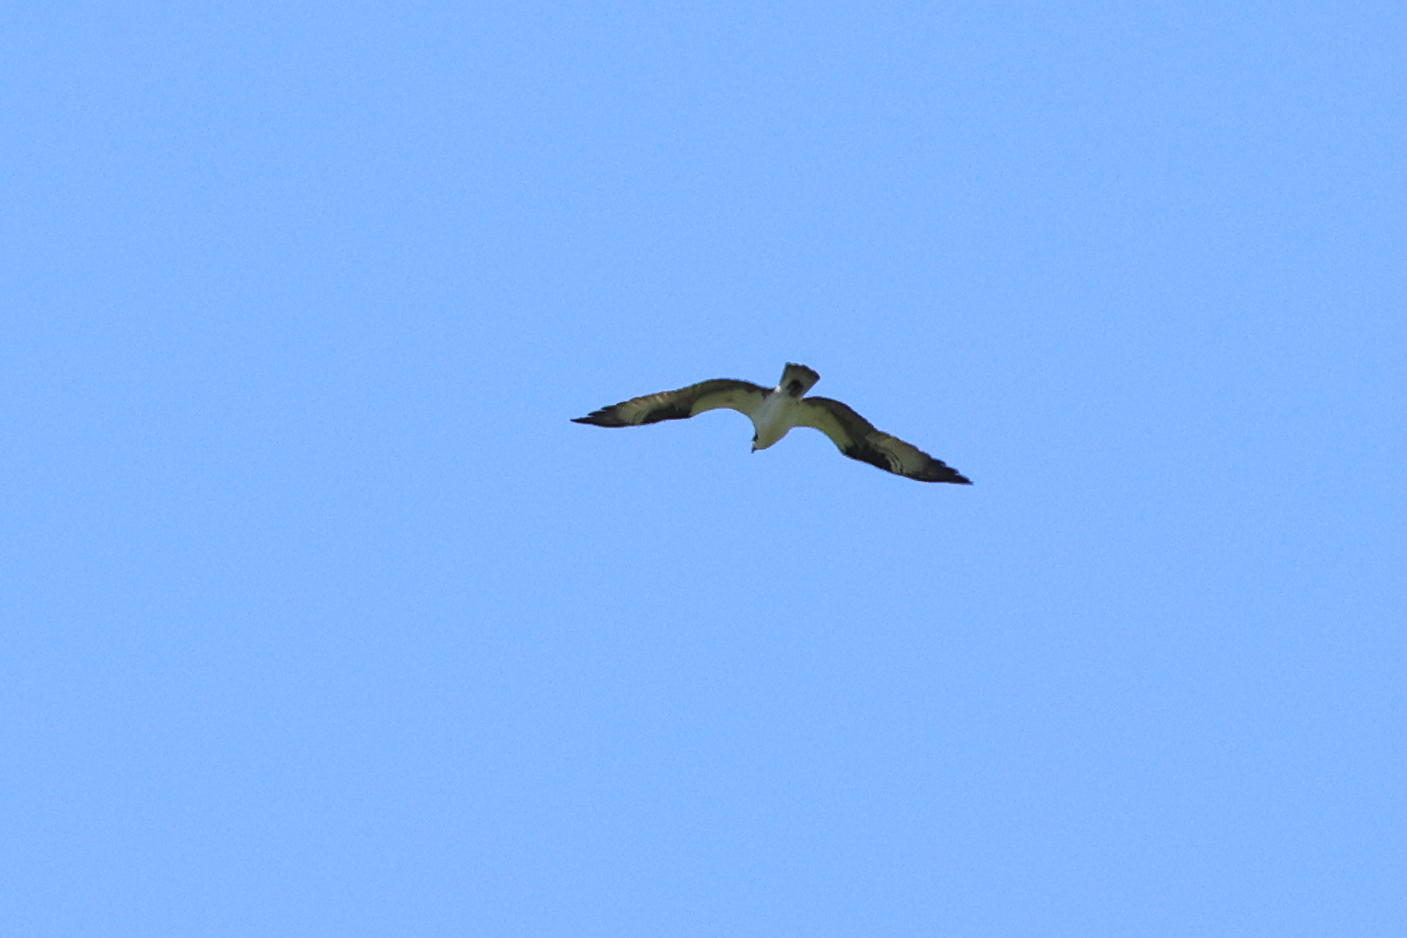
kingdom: Animalia
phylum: Chordata
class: Aves
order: Accipitriformes
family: Pandionidae
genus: Pandion
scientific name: Pandion haliaetus
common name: Osprey
